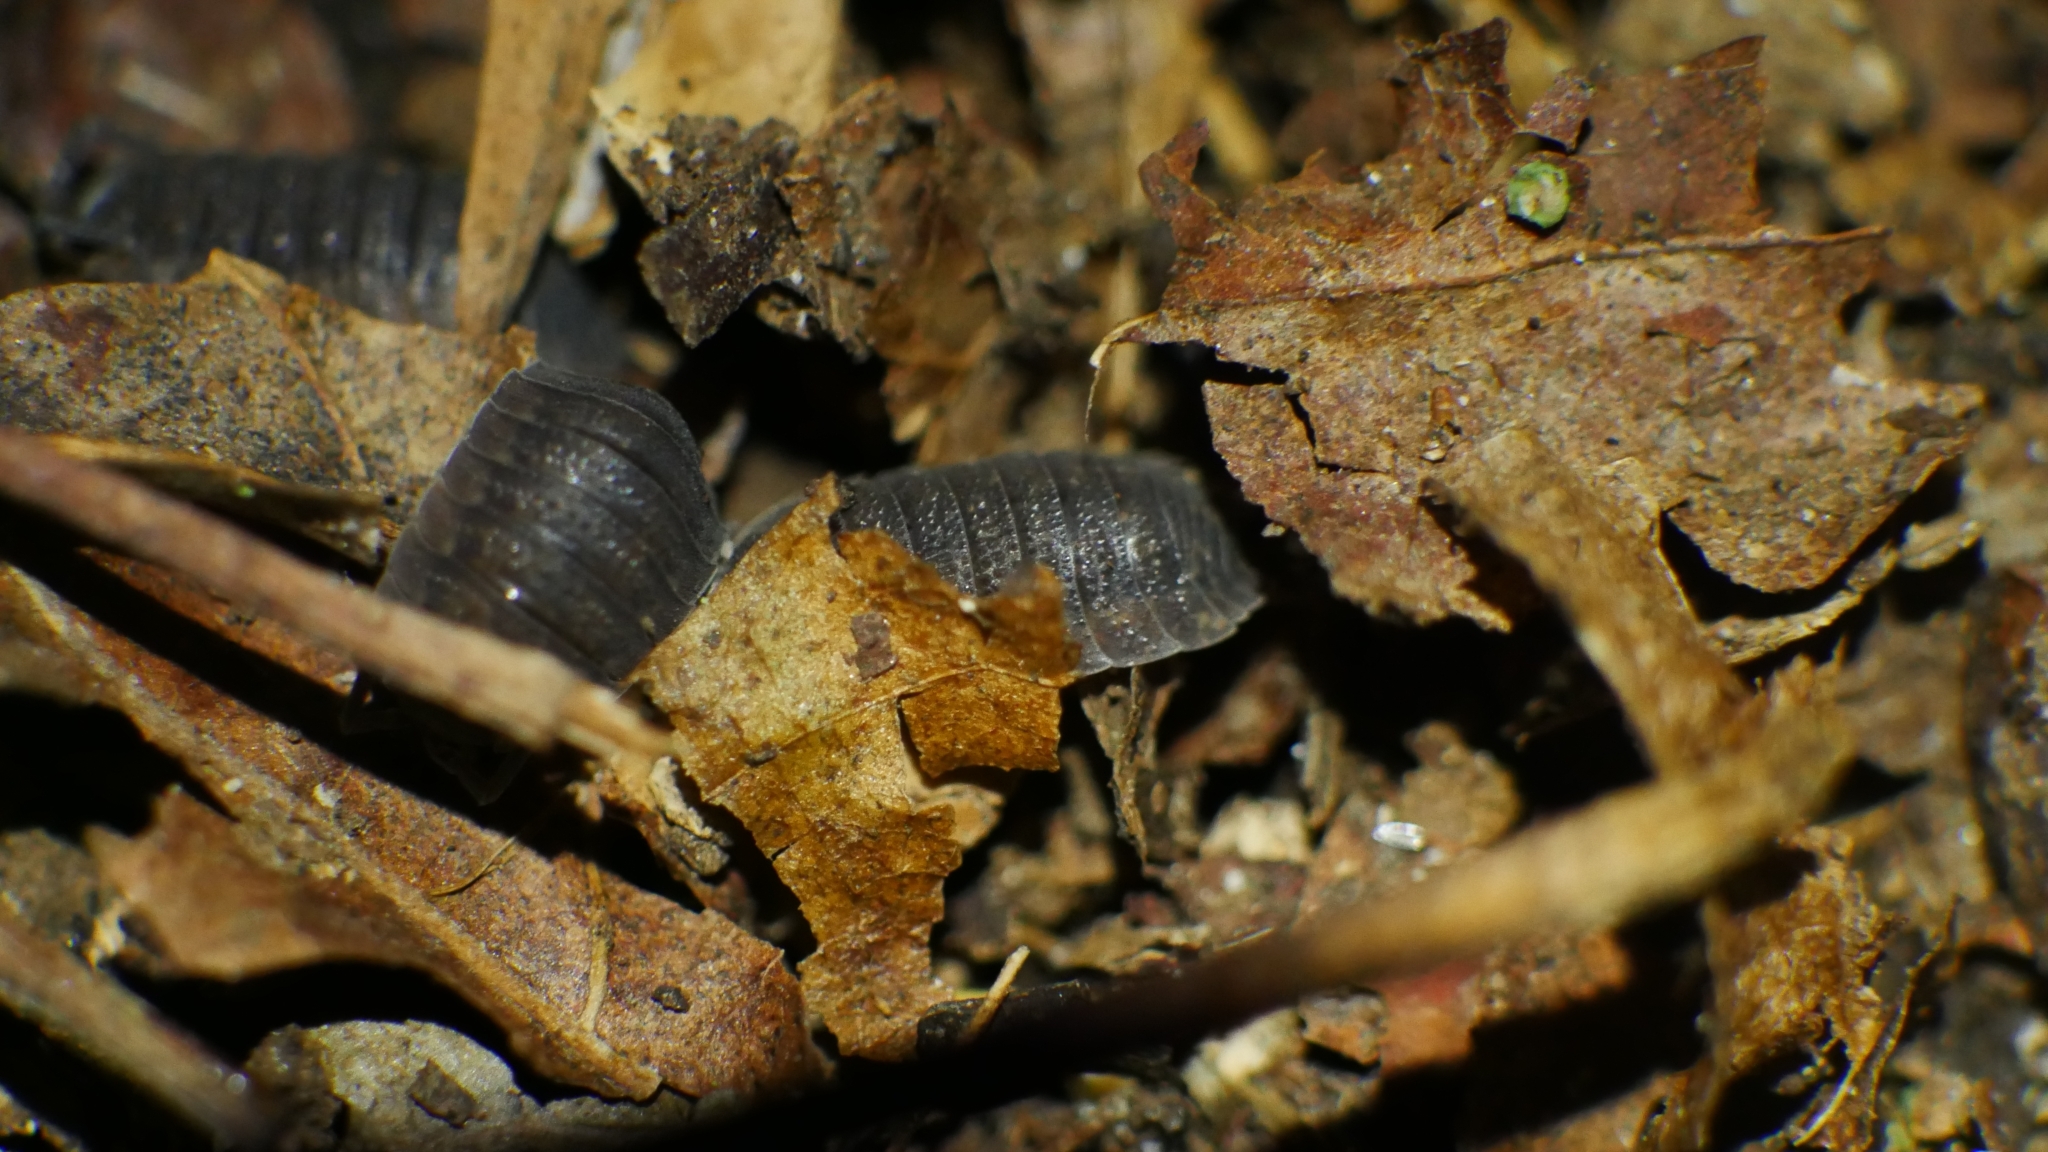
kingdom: Animalia
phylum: Arthropoda
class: Malacostraca
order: Isopoda
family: Porcellionidae
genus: Porcellio
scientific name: Porcellio scaber
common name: Common rough woodlouse
